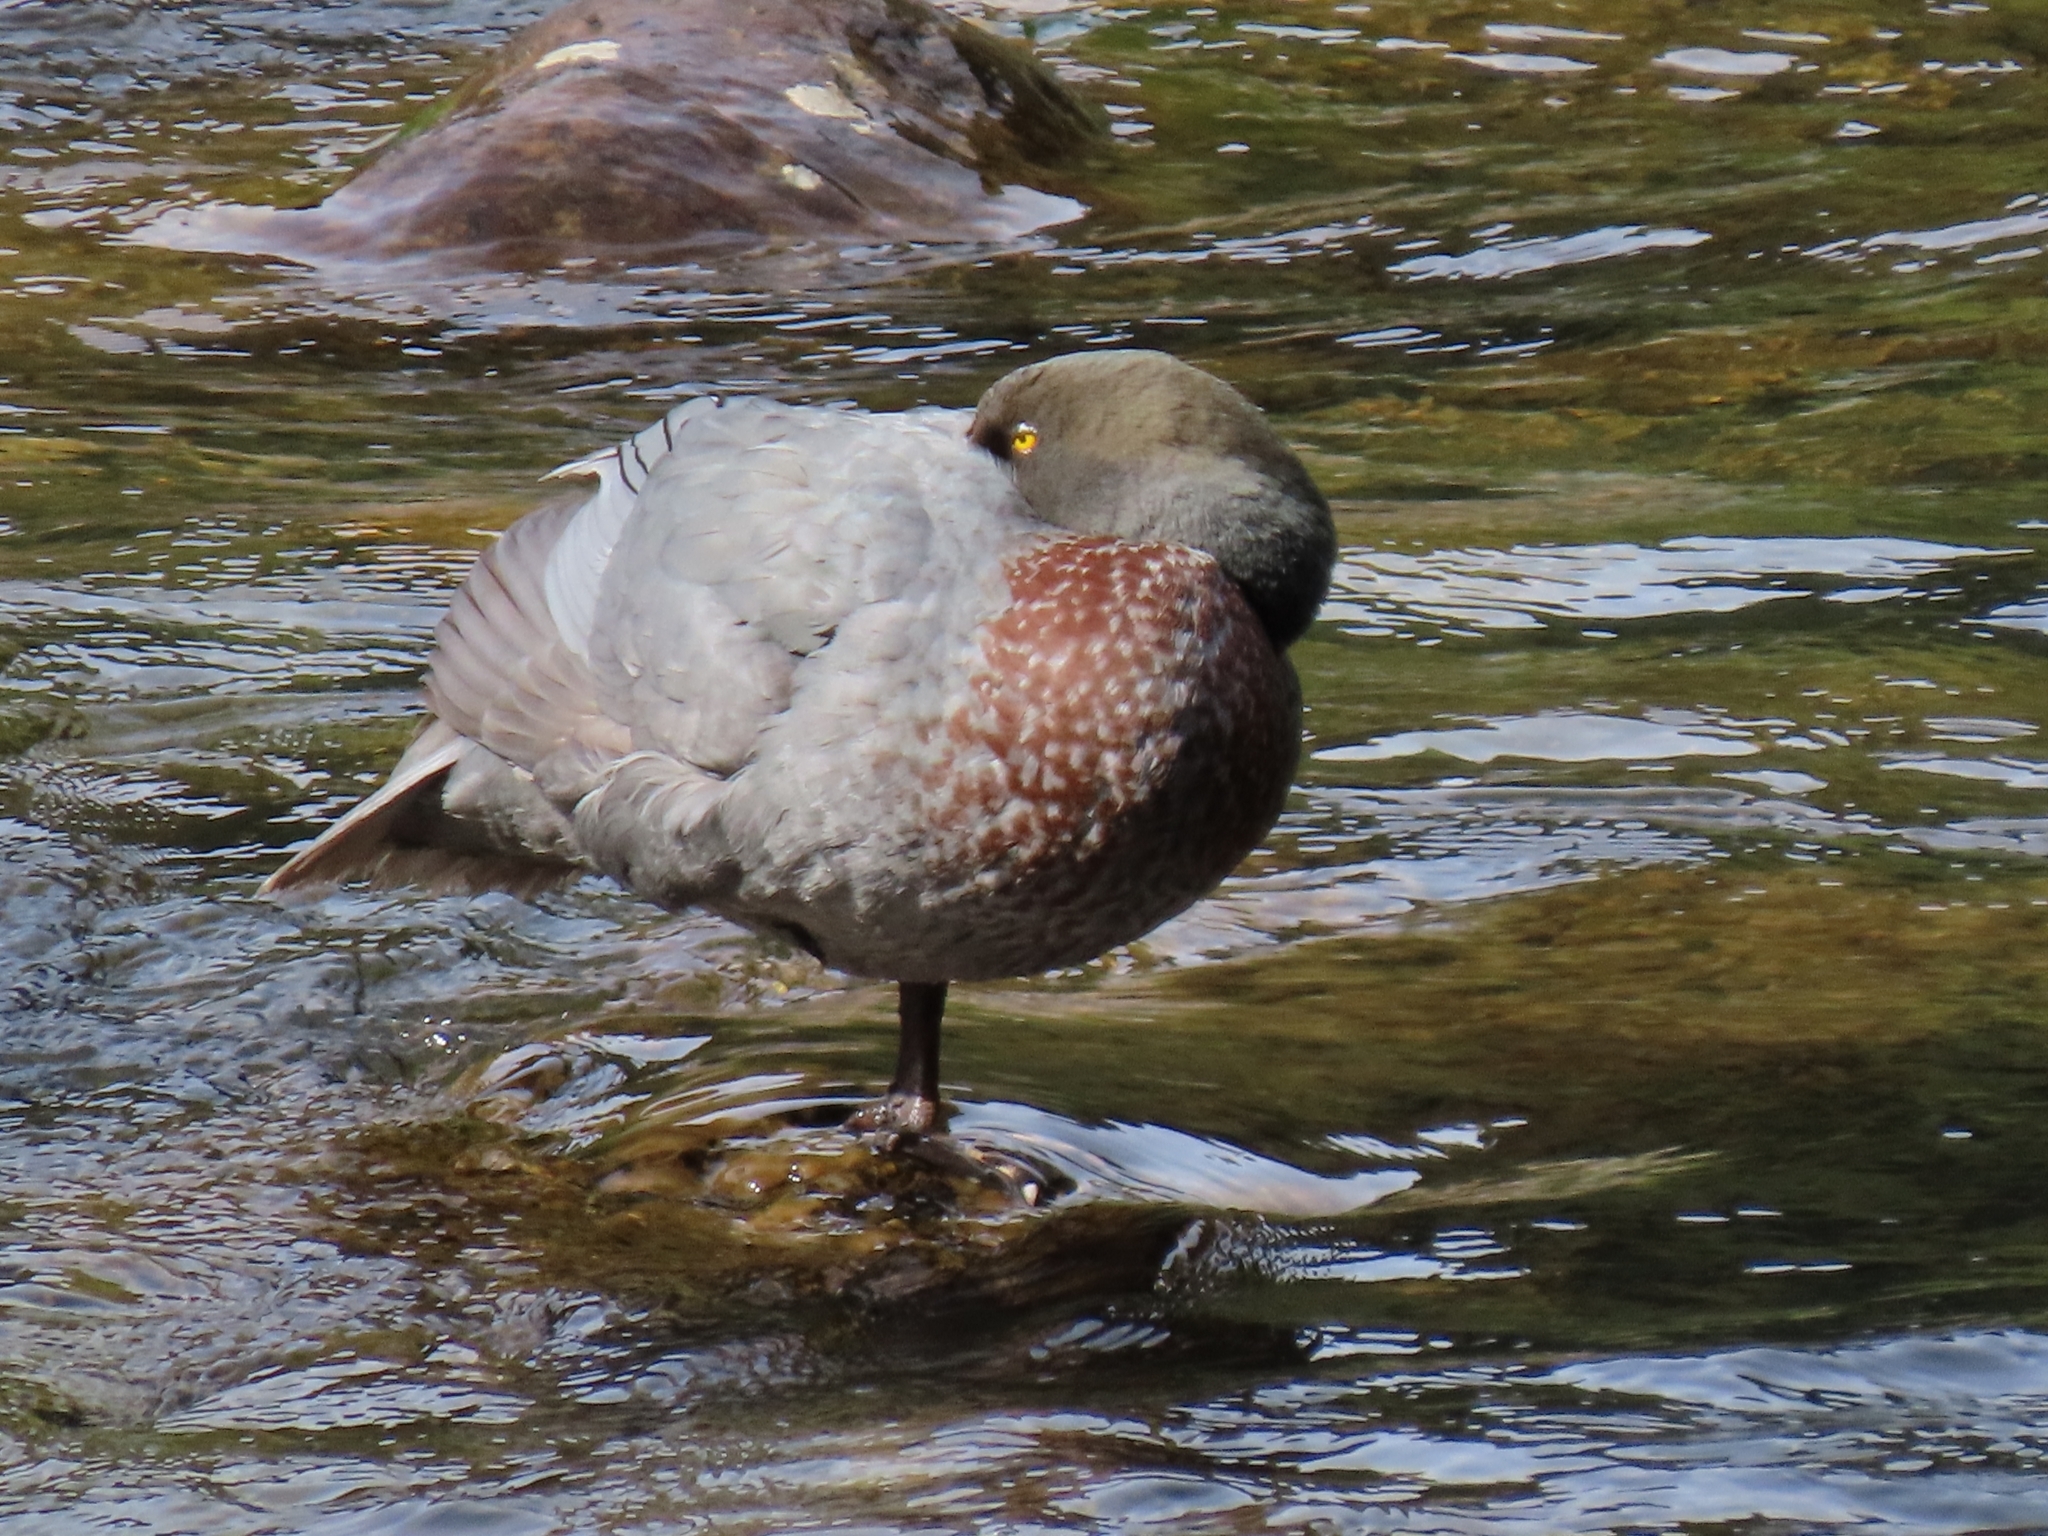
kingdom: Animalia
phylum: Chordata
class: Aves
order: Anseriformes
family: Anatidae
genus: Hymenolaimus
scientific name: Hymenolaimus malacorhynchos
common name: Blue duck
